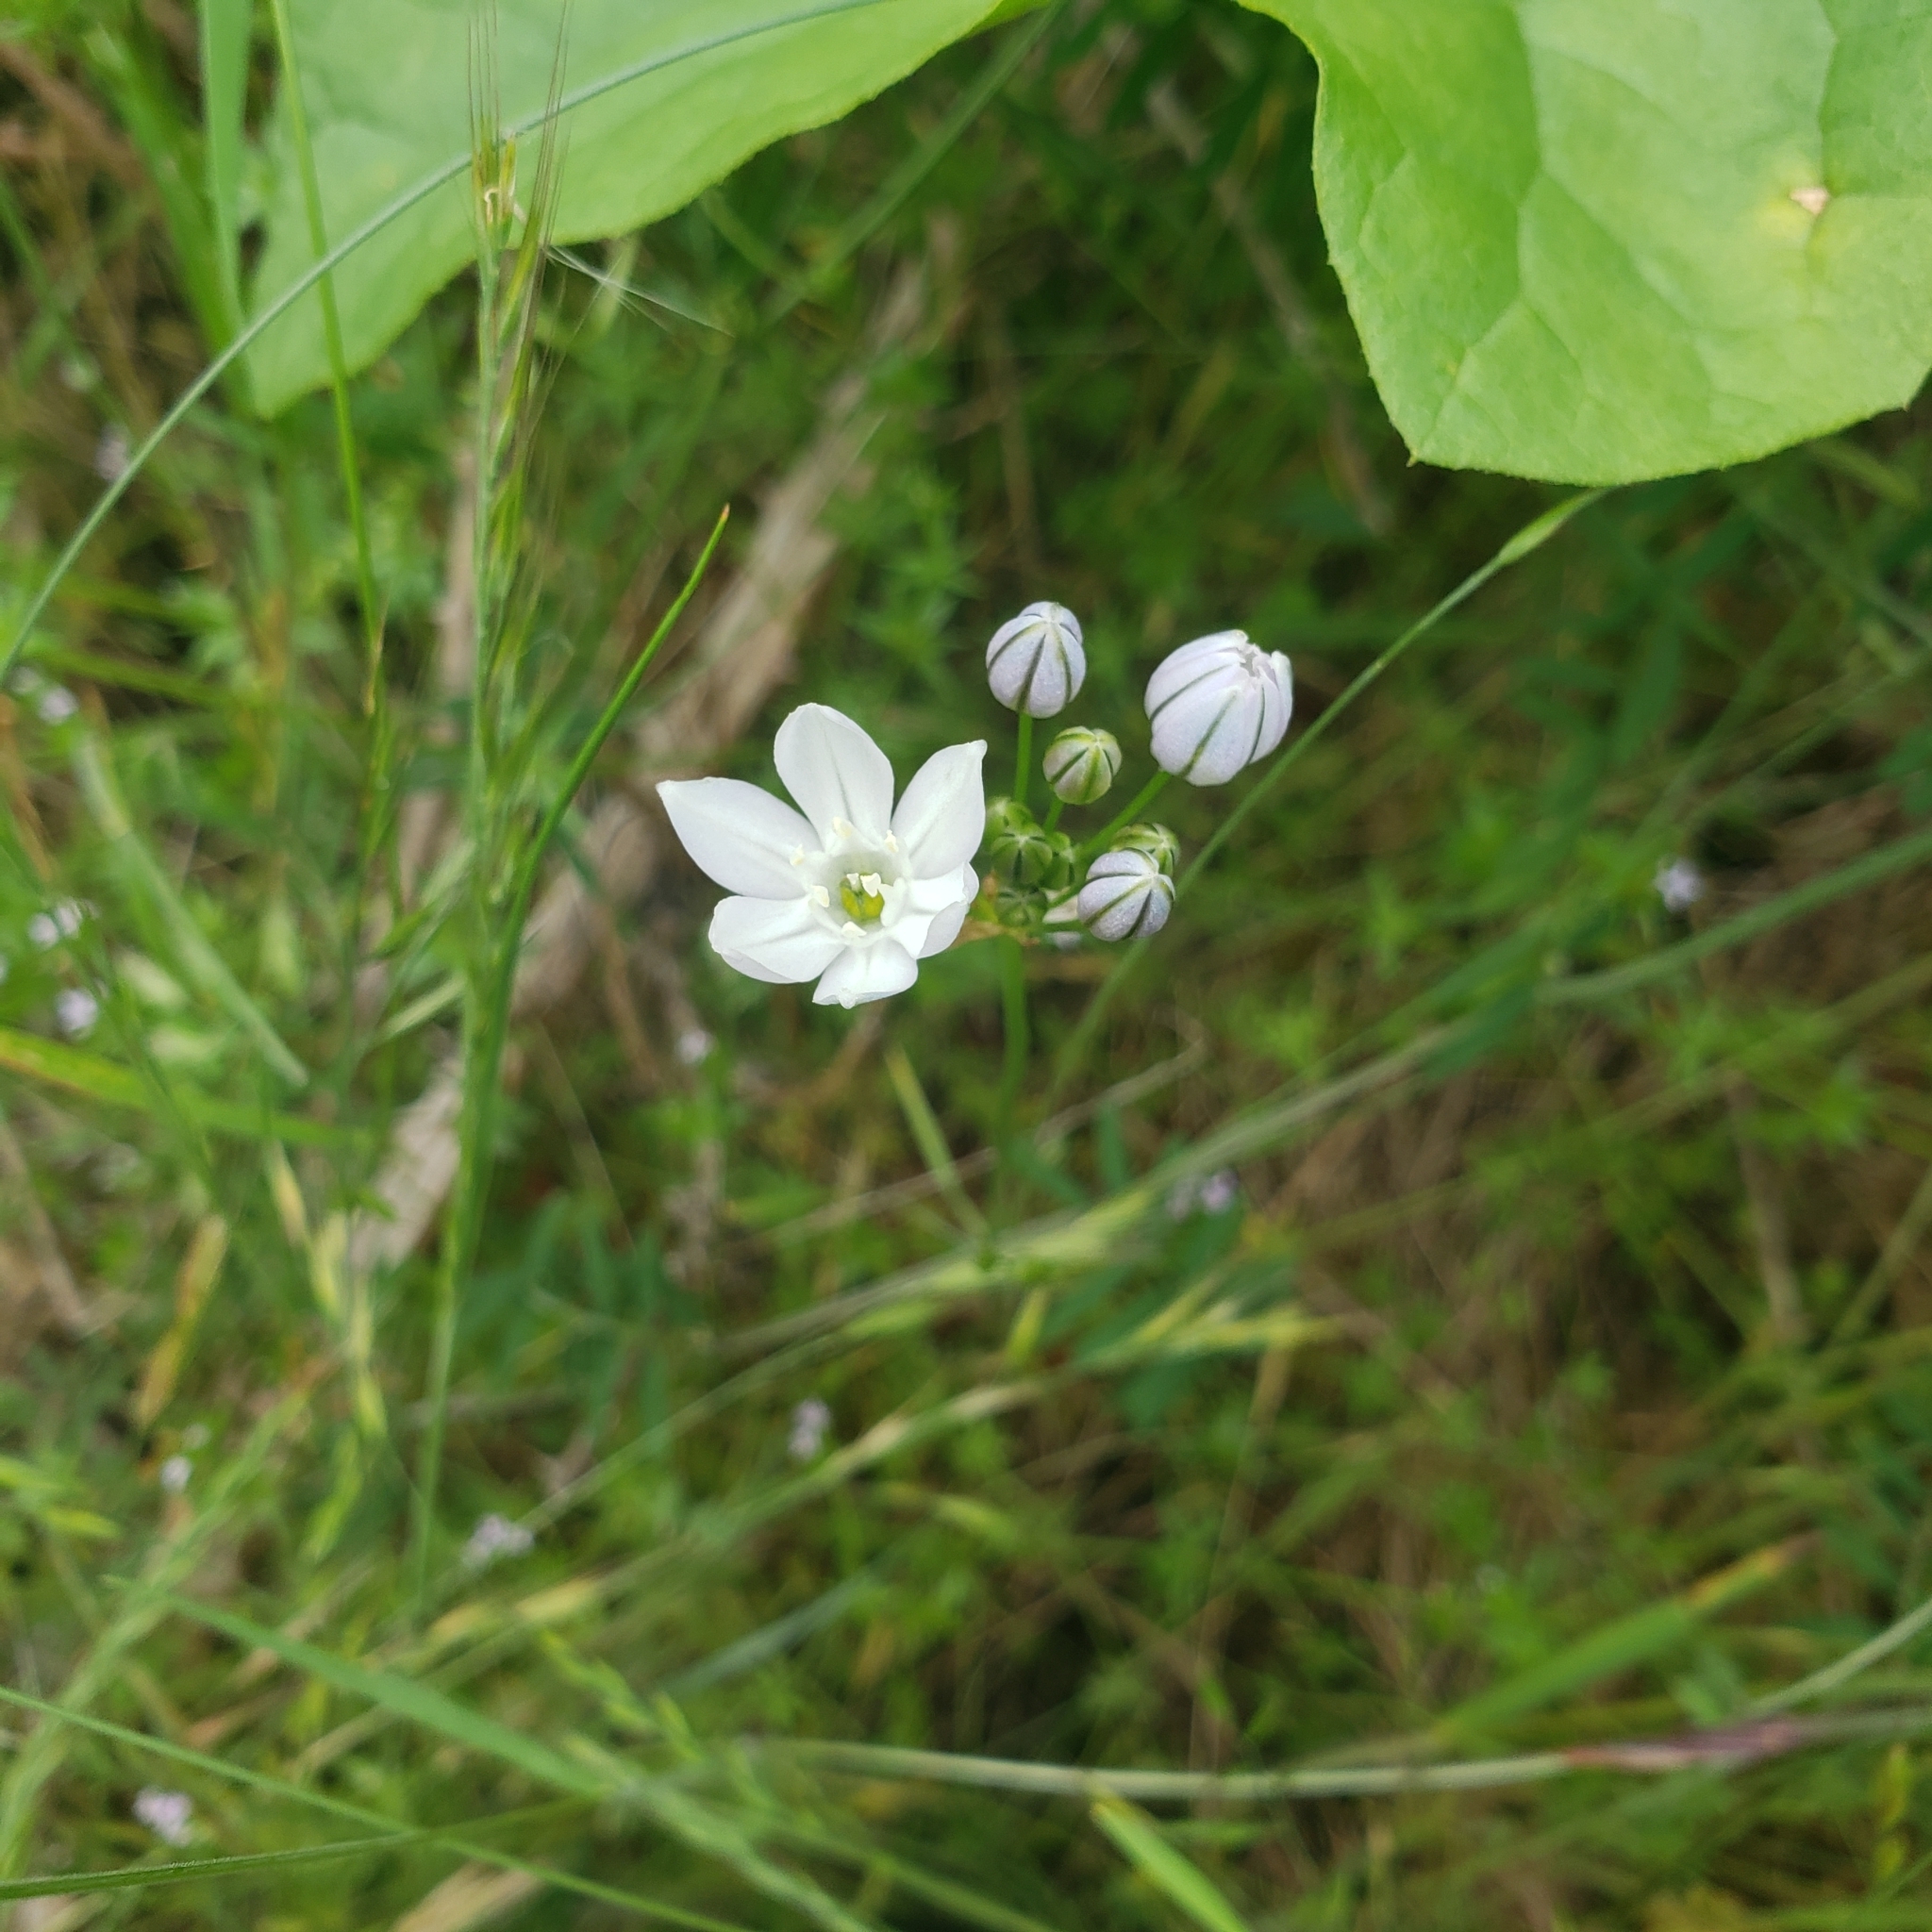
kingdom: Plantae
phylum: Tracheophyta
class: Liliopsida
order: Asparagales
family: Asparagaceae
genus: Triteleia
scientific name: Triteleia hyacinthina
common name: White brodiaea
